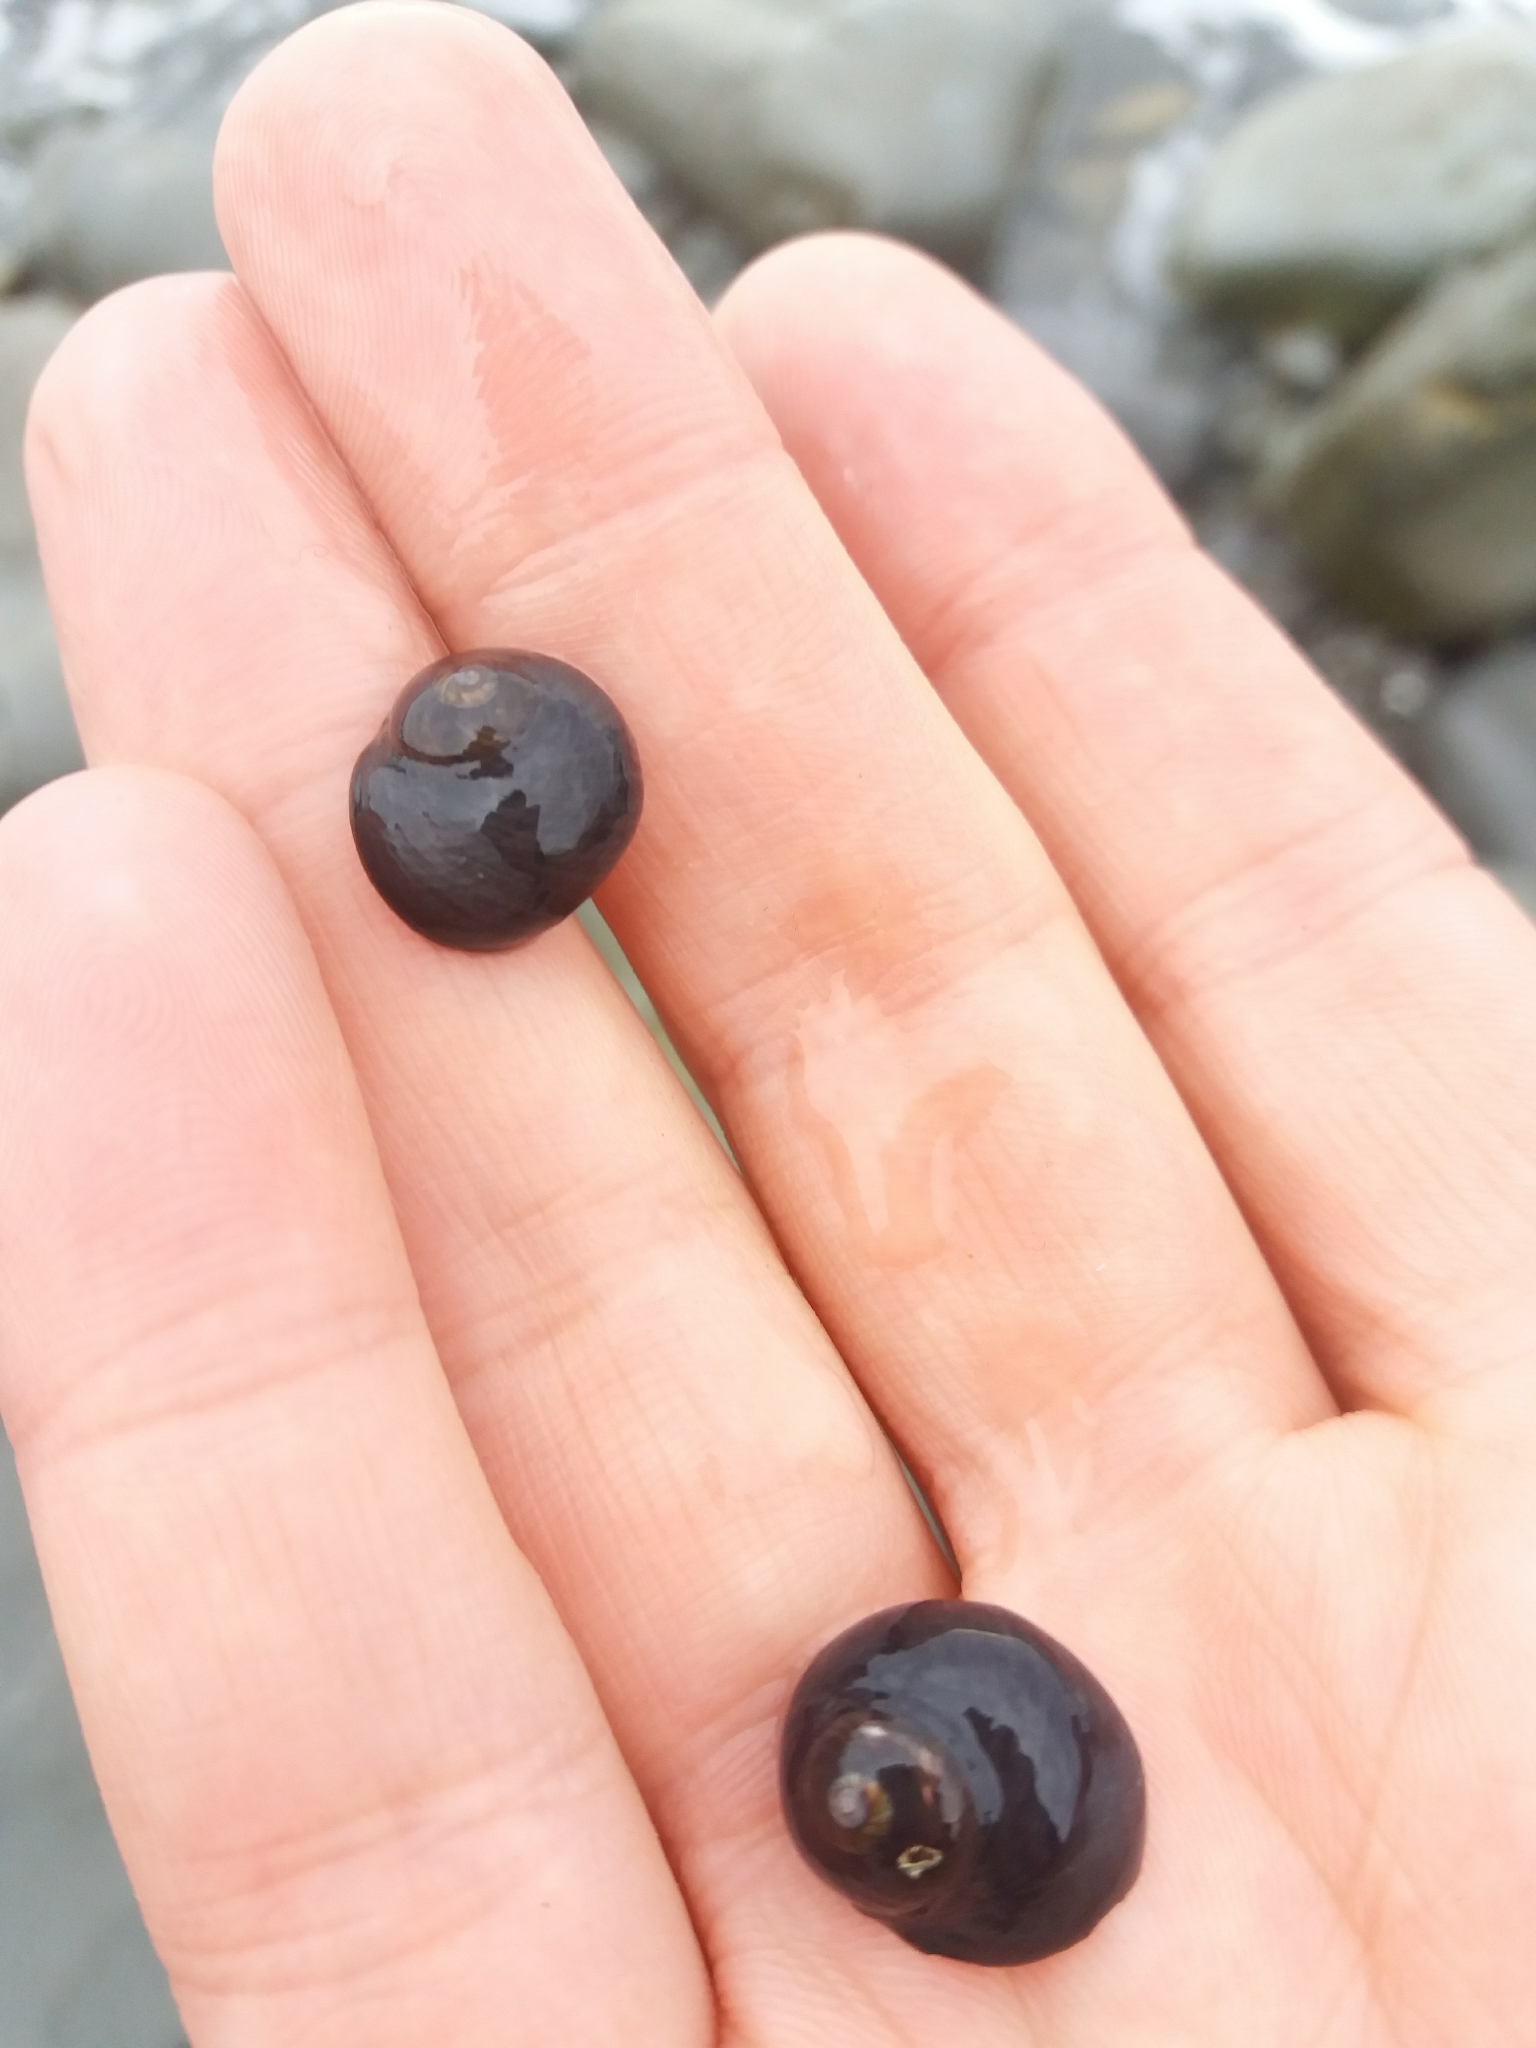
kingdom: Animalia
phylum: Mollusca
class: Gastropoda
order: Trochida
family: Trochidae
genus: Diloma
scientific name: Diloma nigerrimum
